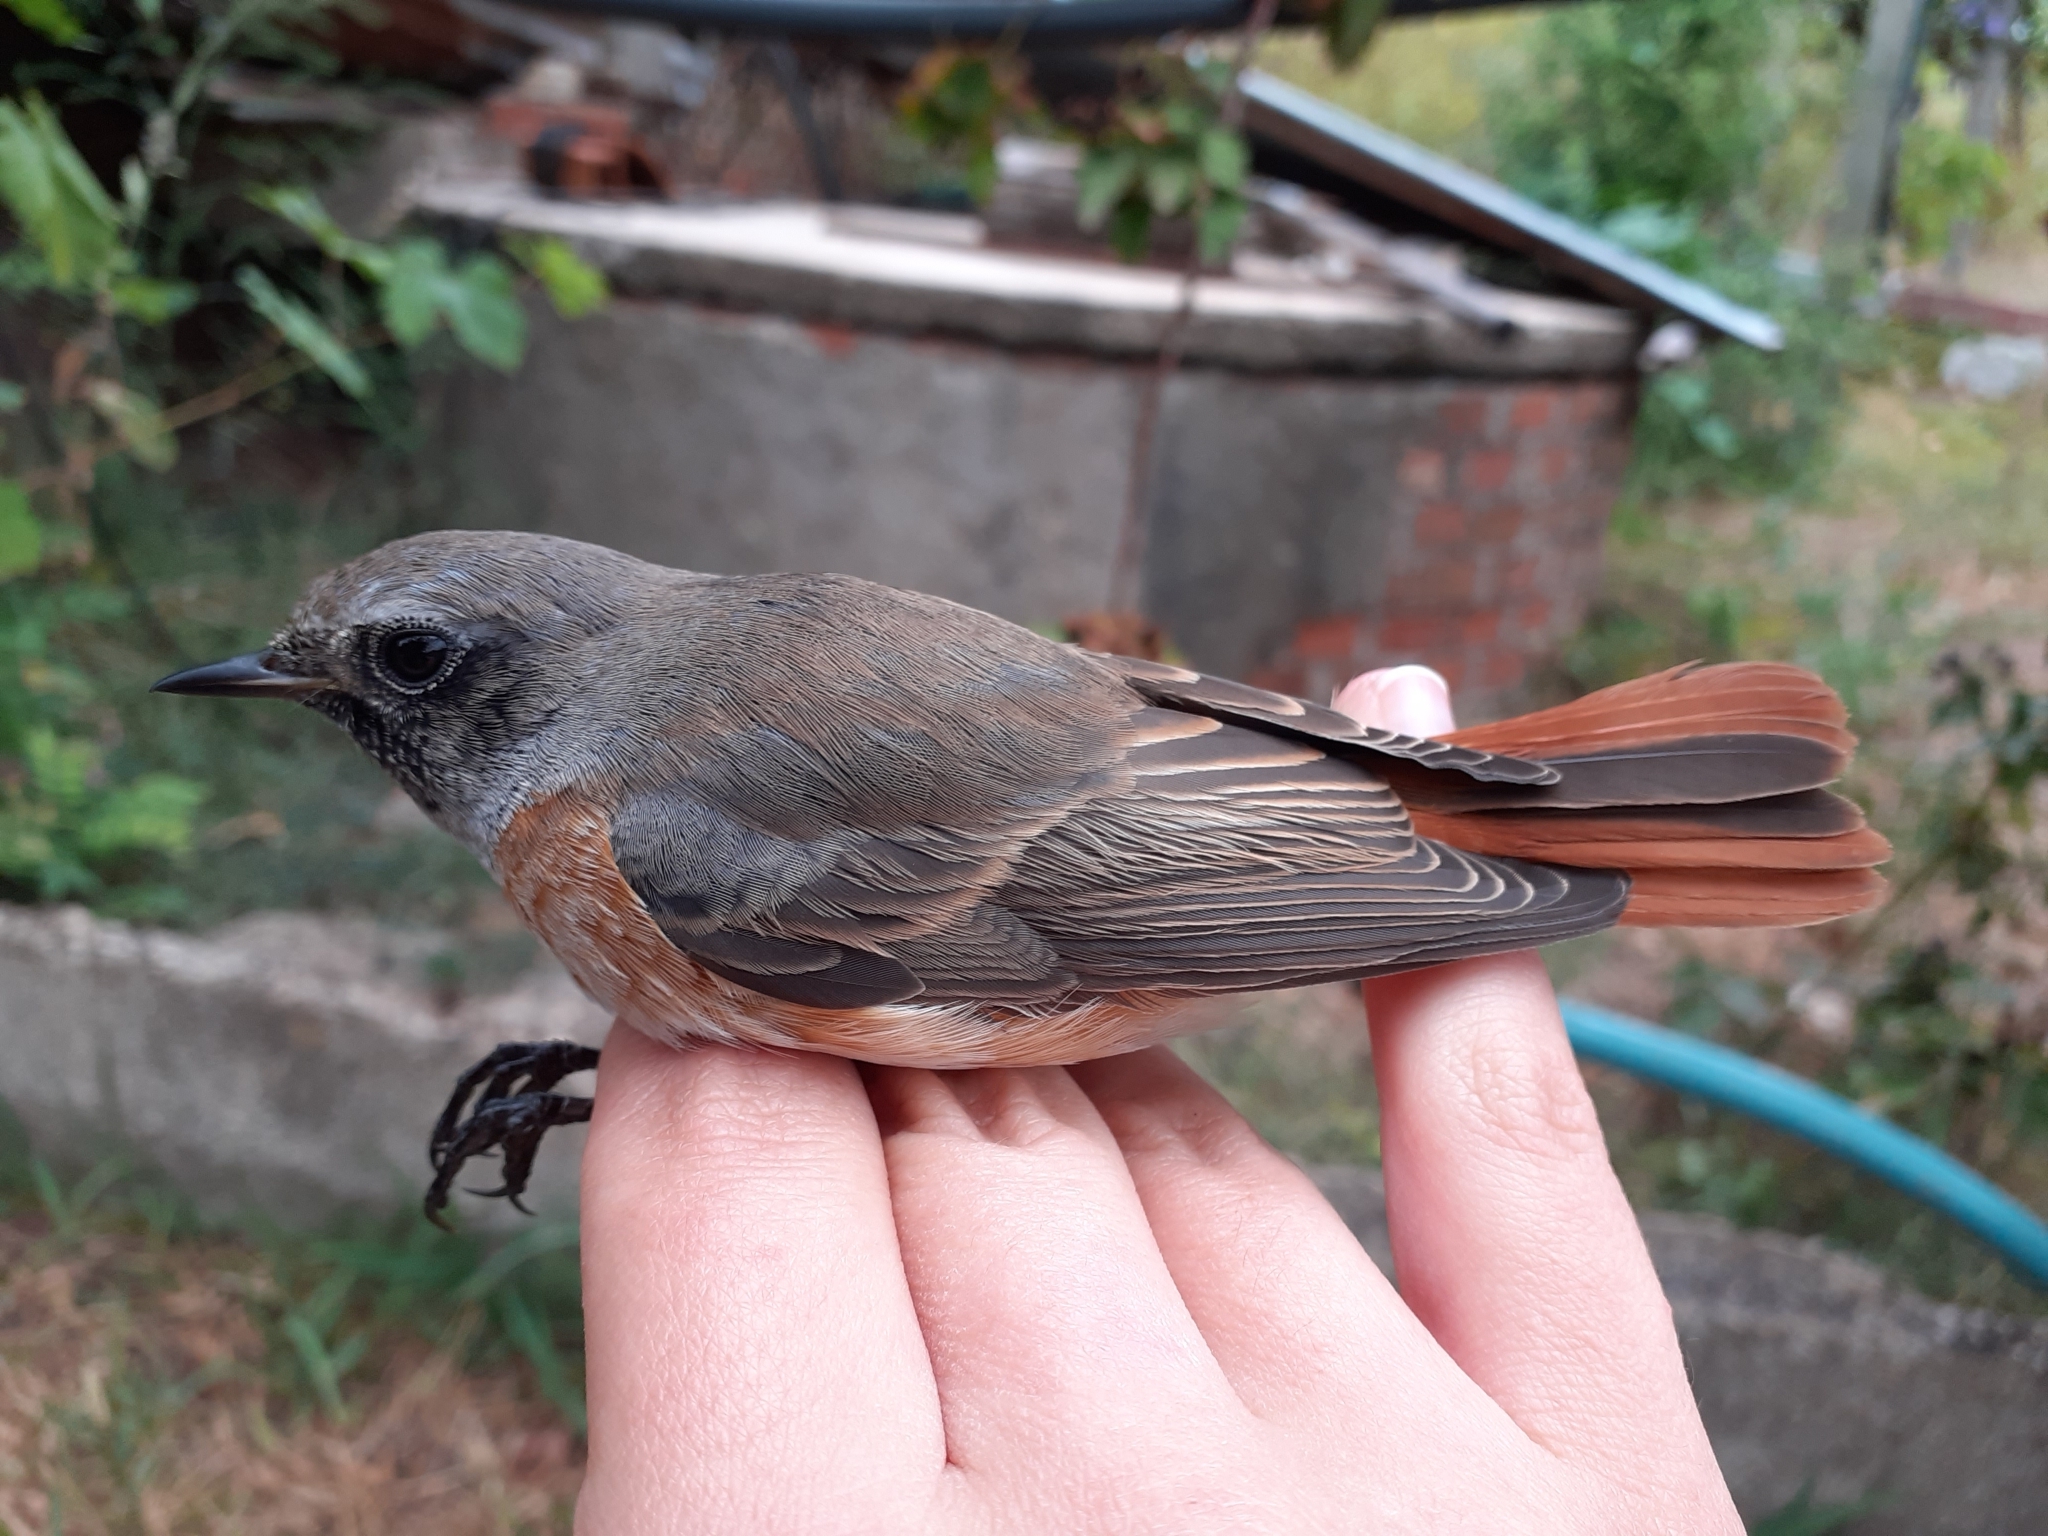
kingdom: Animalia
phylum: Chordata
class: Aves
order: Passeriformes
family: Muscicapidae
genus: Phoenicurus
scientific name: Phoenicurus phoenicurus
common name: Common redstart
